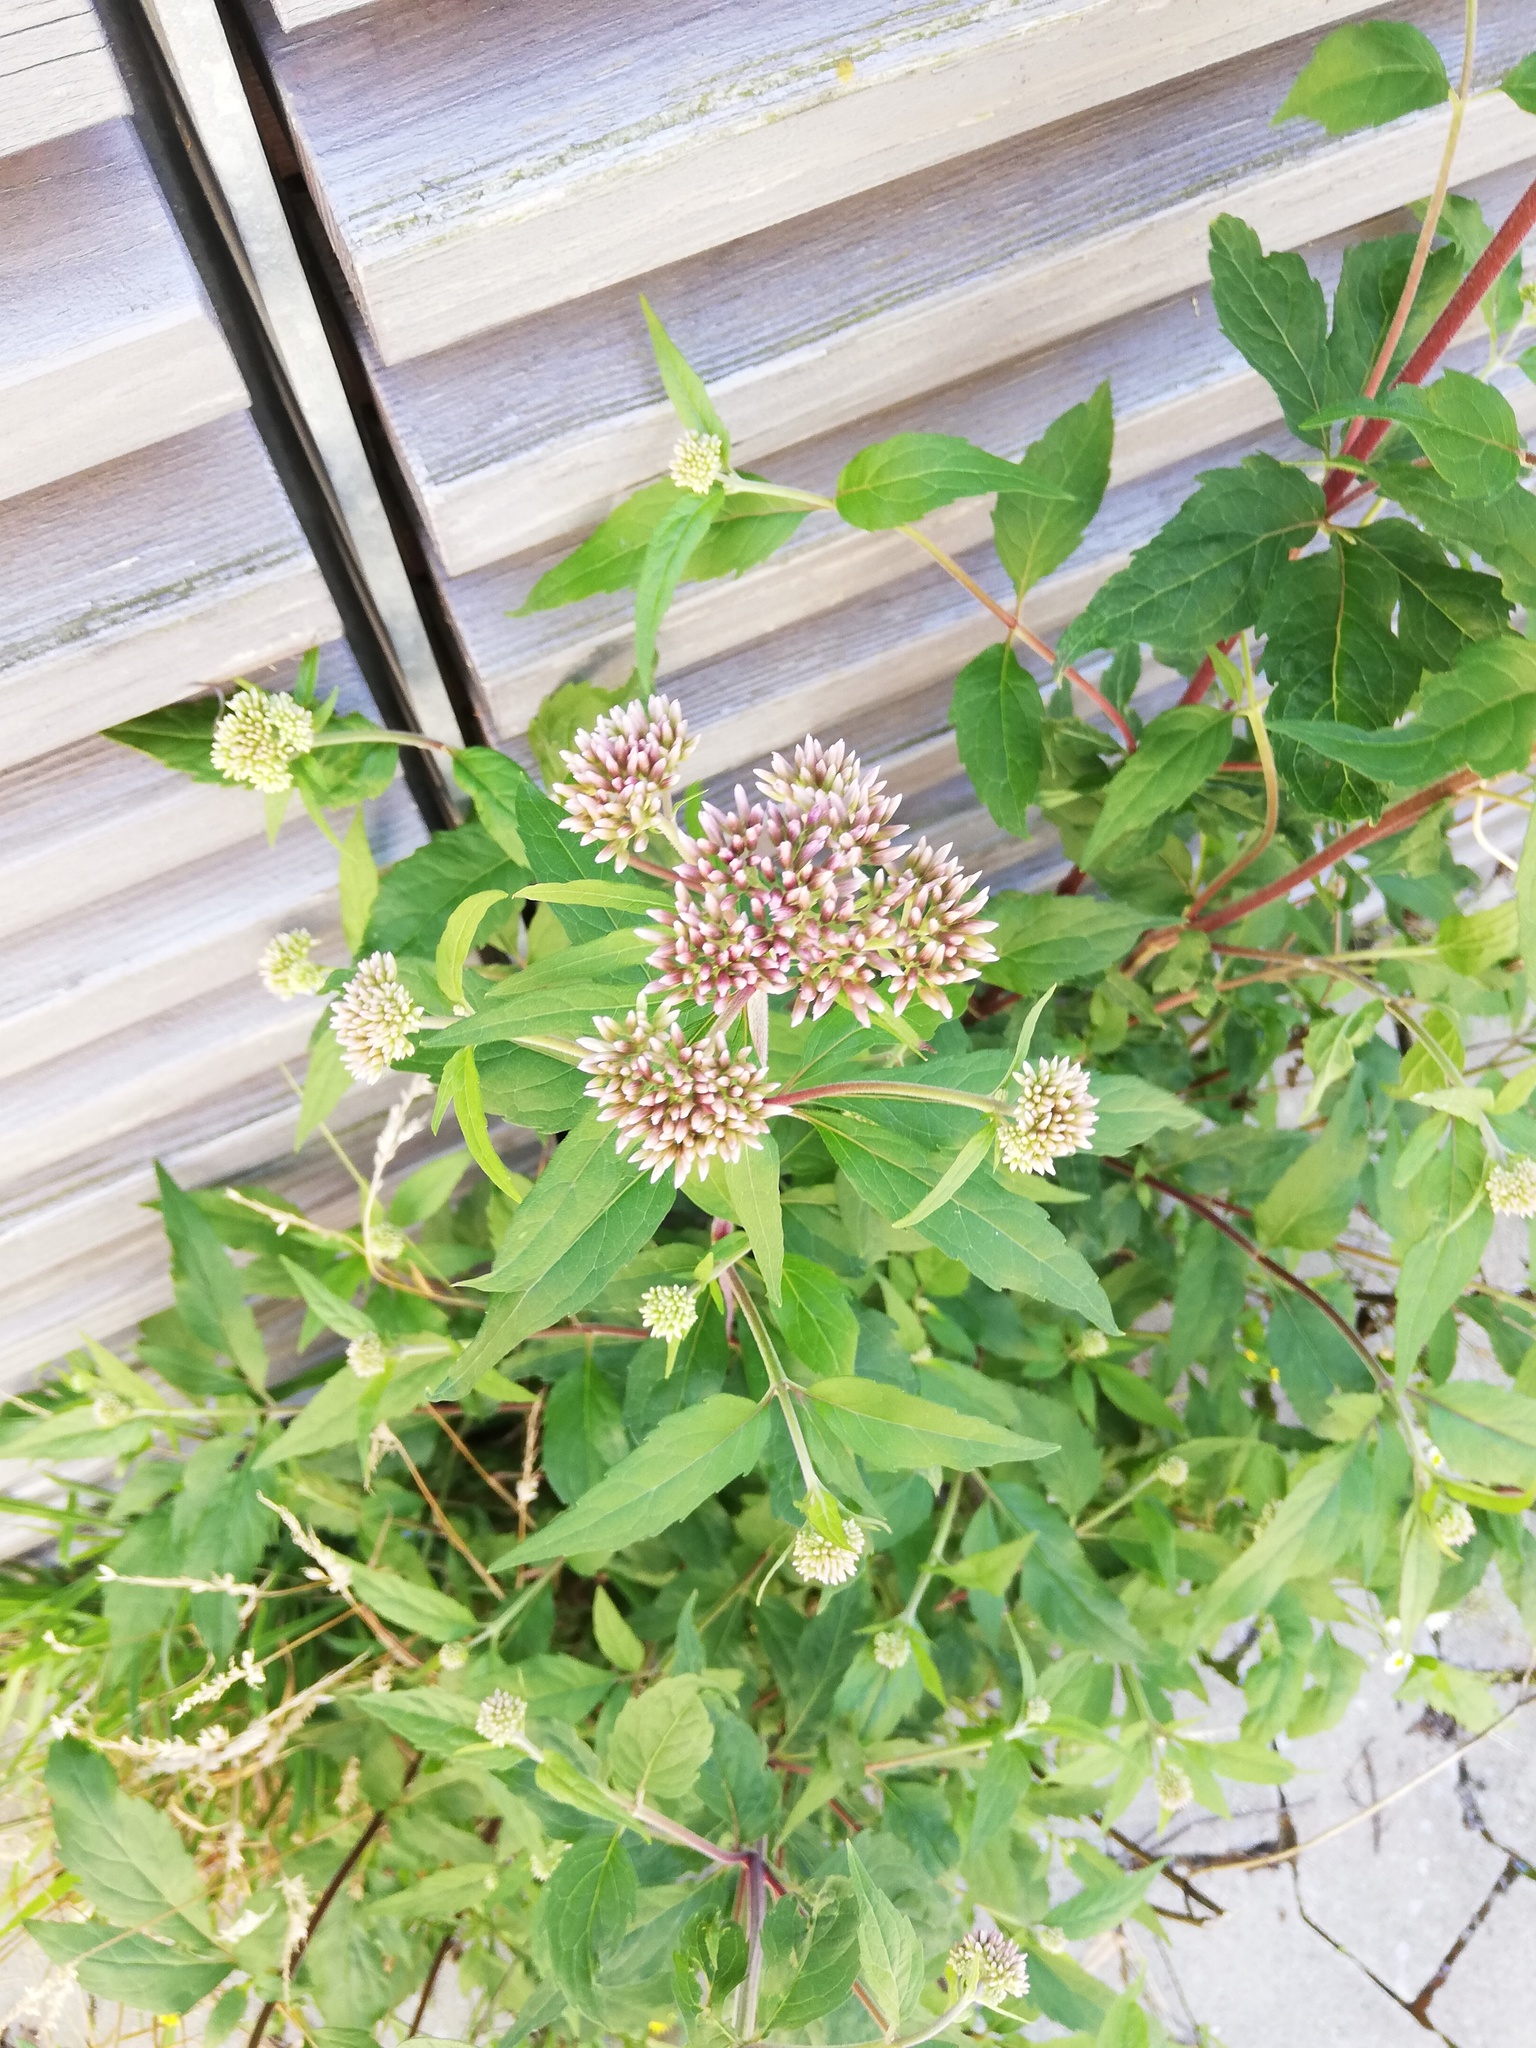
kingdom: Plantae
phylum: Tracheophyta
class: Magnoliopsida
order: Asterales
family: Asteraceae
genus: Eupatorium
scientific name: Eupatorium cannabinum
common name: Hemp-agrimony
